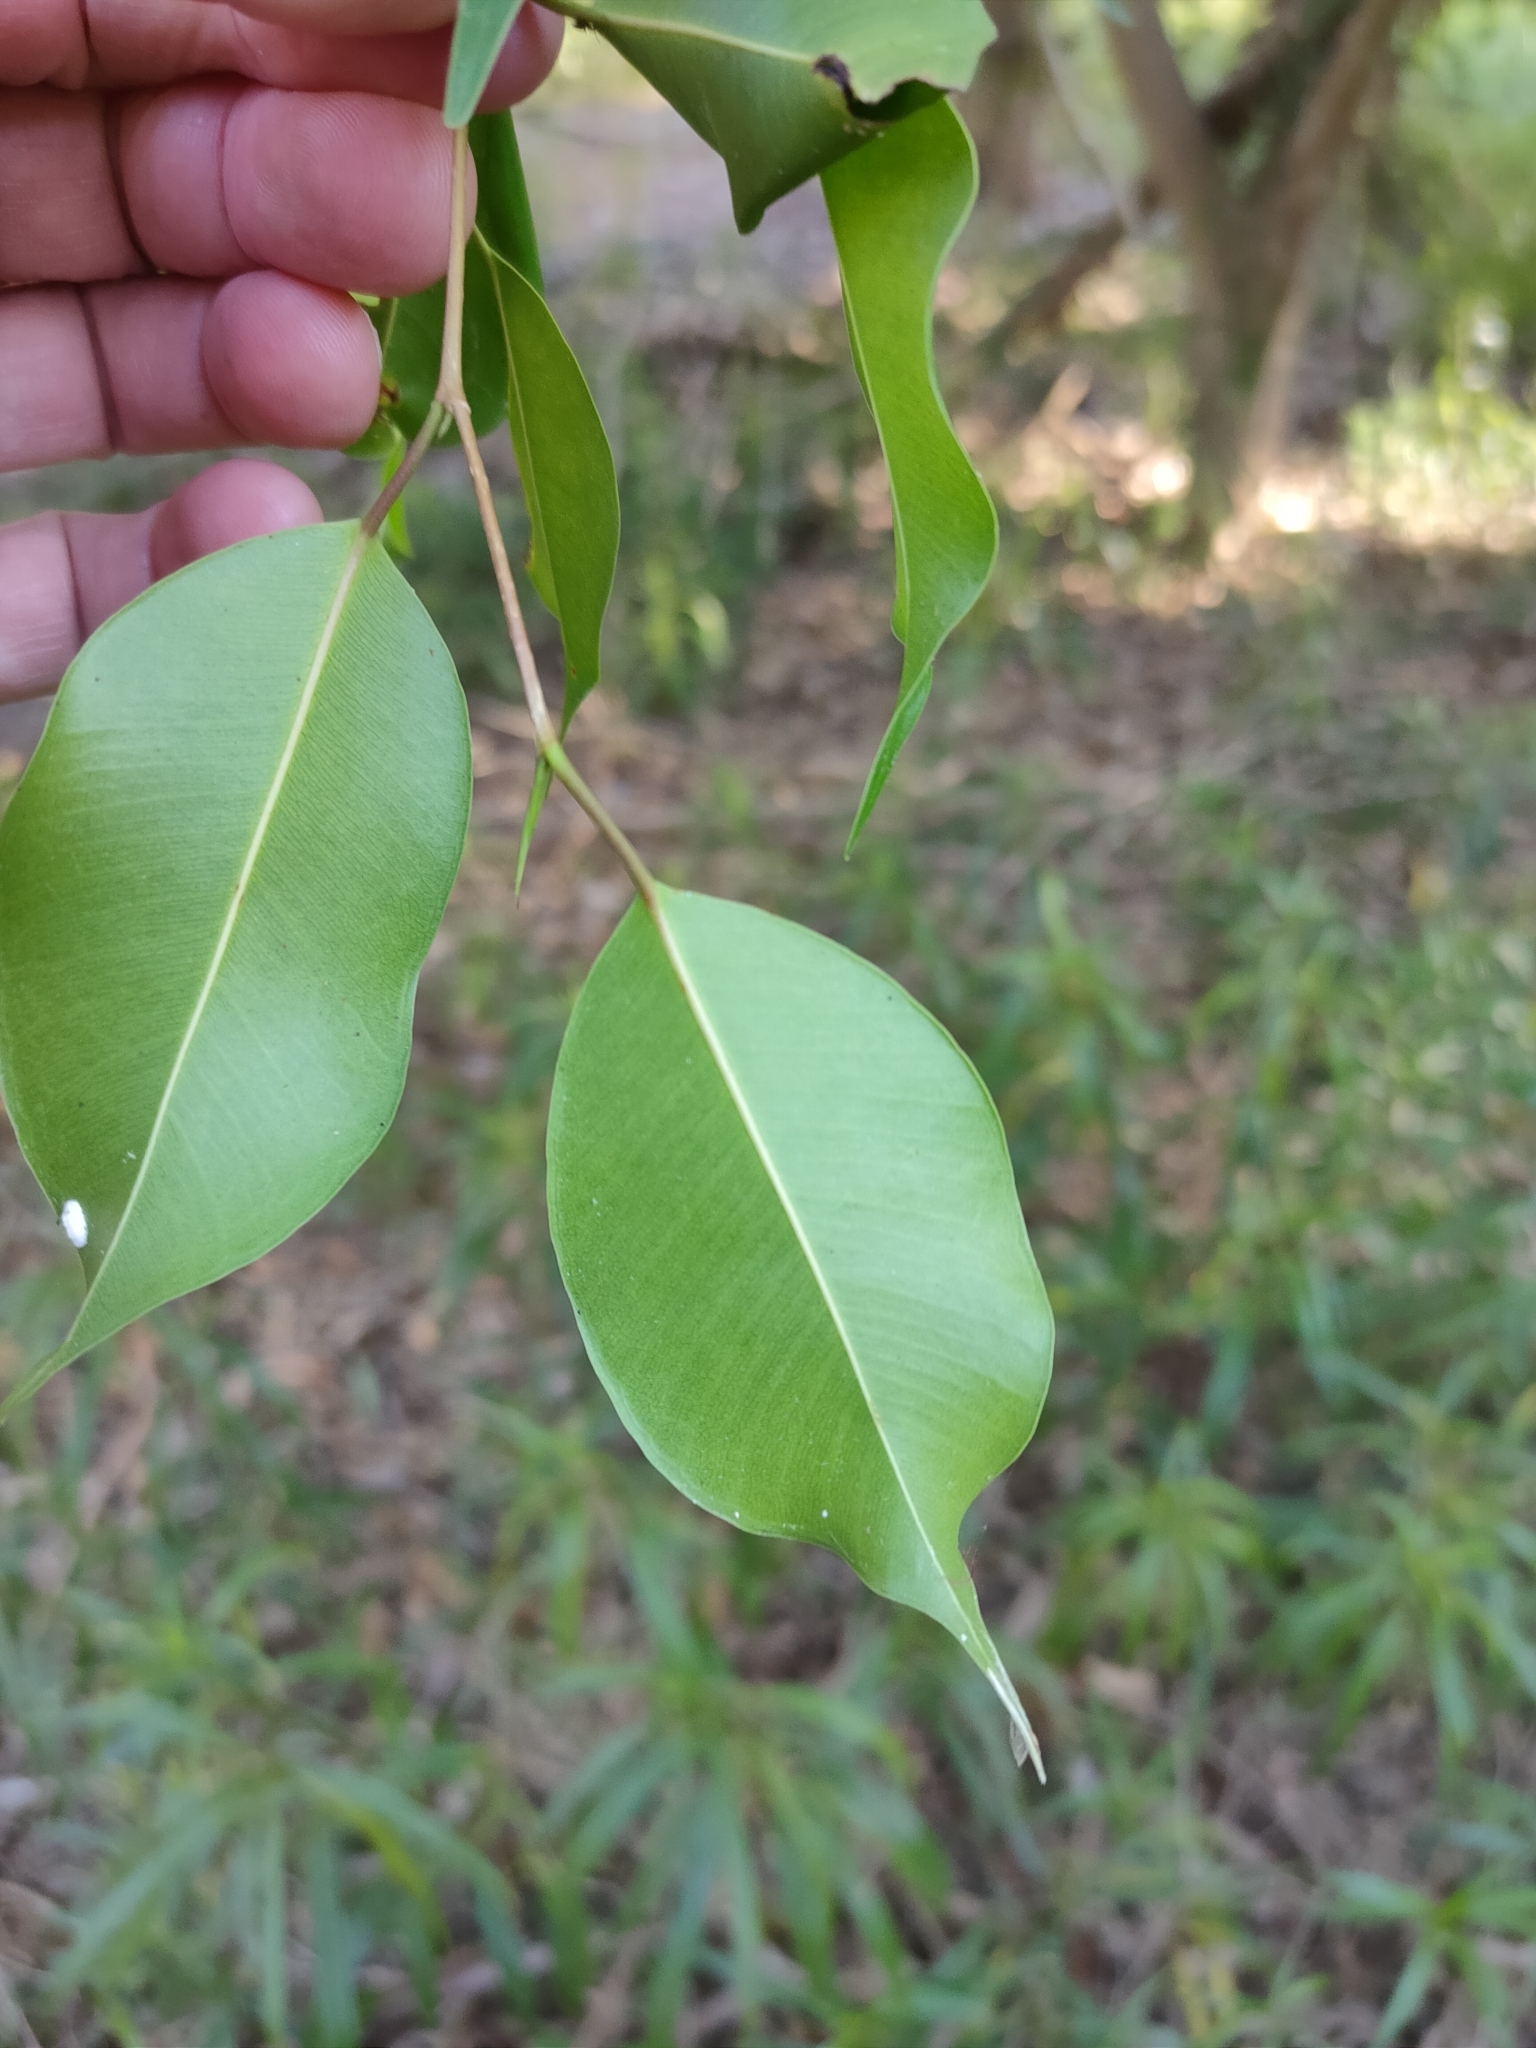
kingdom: Plantae
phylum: Tracheophyta
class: Magnoliopsida
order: Rosales
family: Moraceae
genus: Ficus
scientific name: Ficus benjamina
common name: Weeping fig
